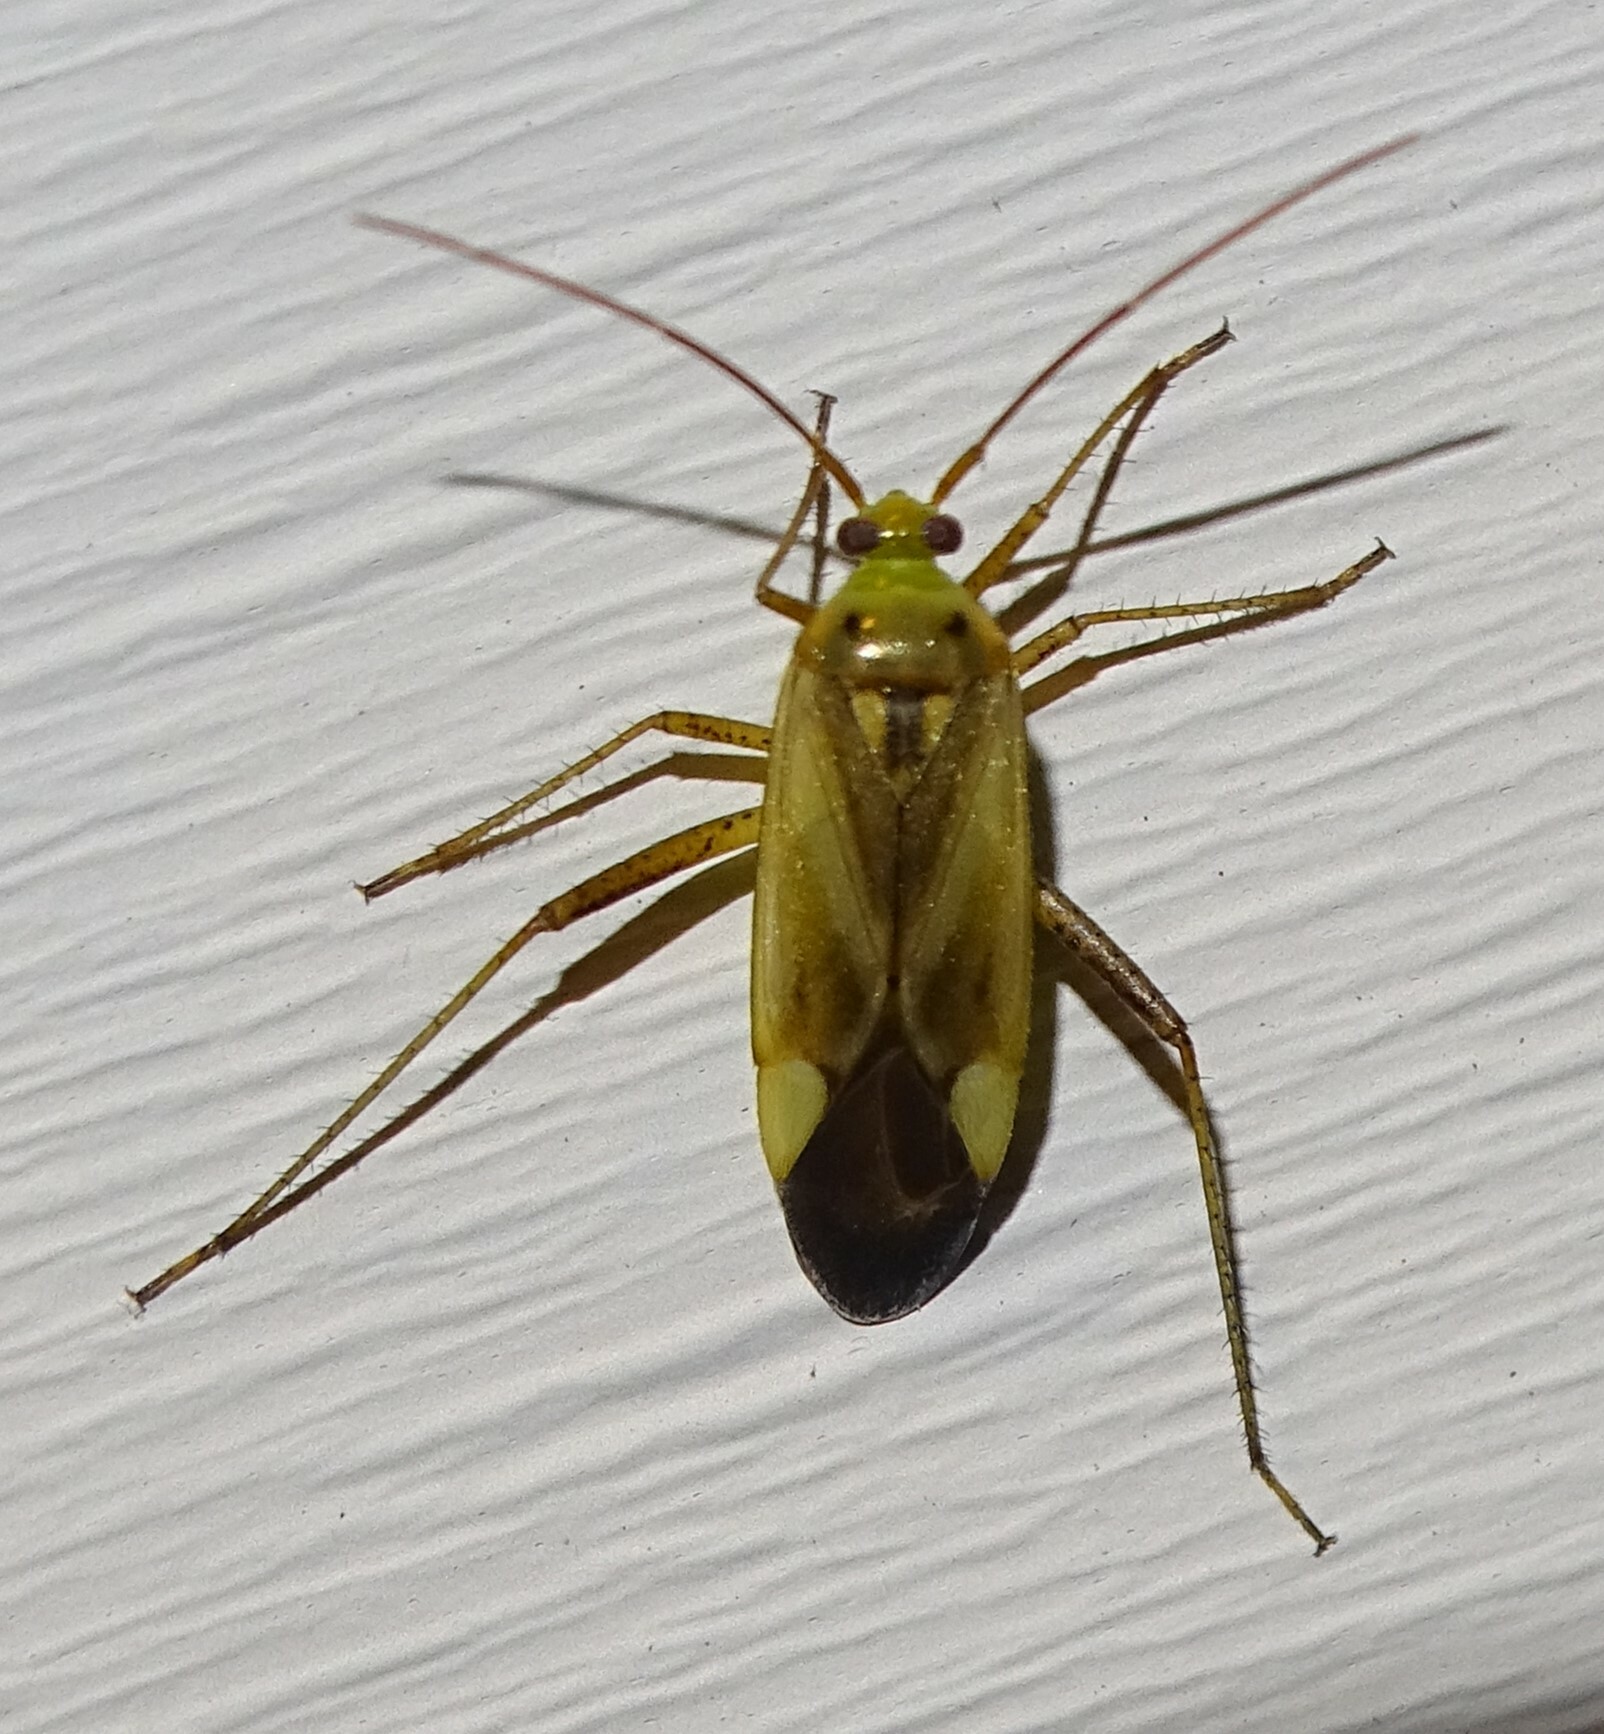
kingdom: Animalia
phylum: Arthropoda
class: Insecta
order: Hemiptera
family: Miridae
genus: Adelphocoris
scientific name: Adelphocoris lineolatus
